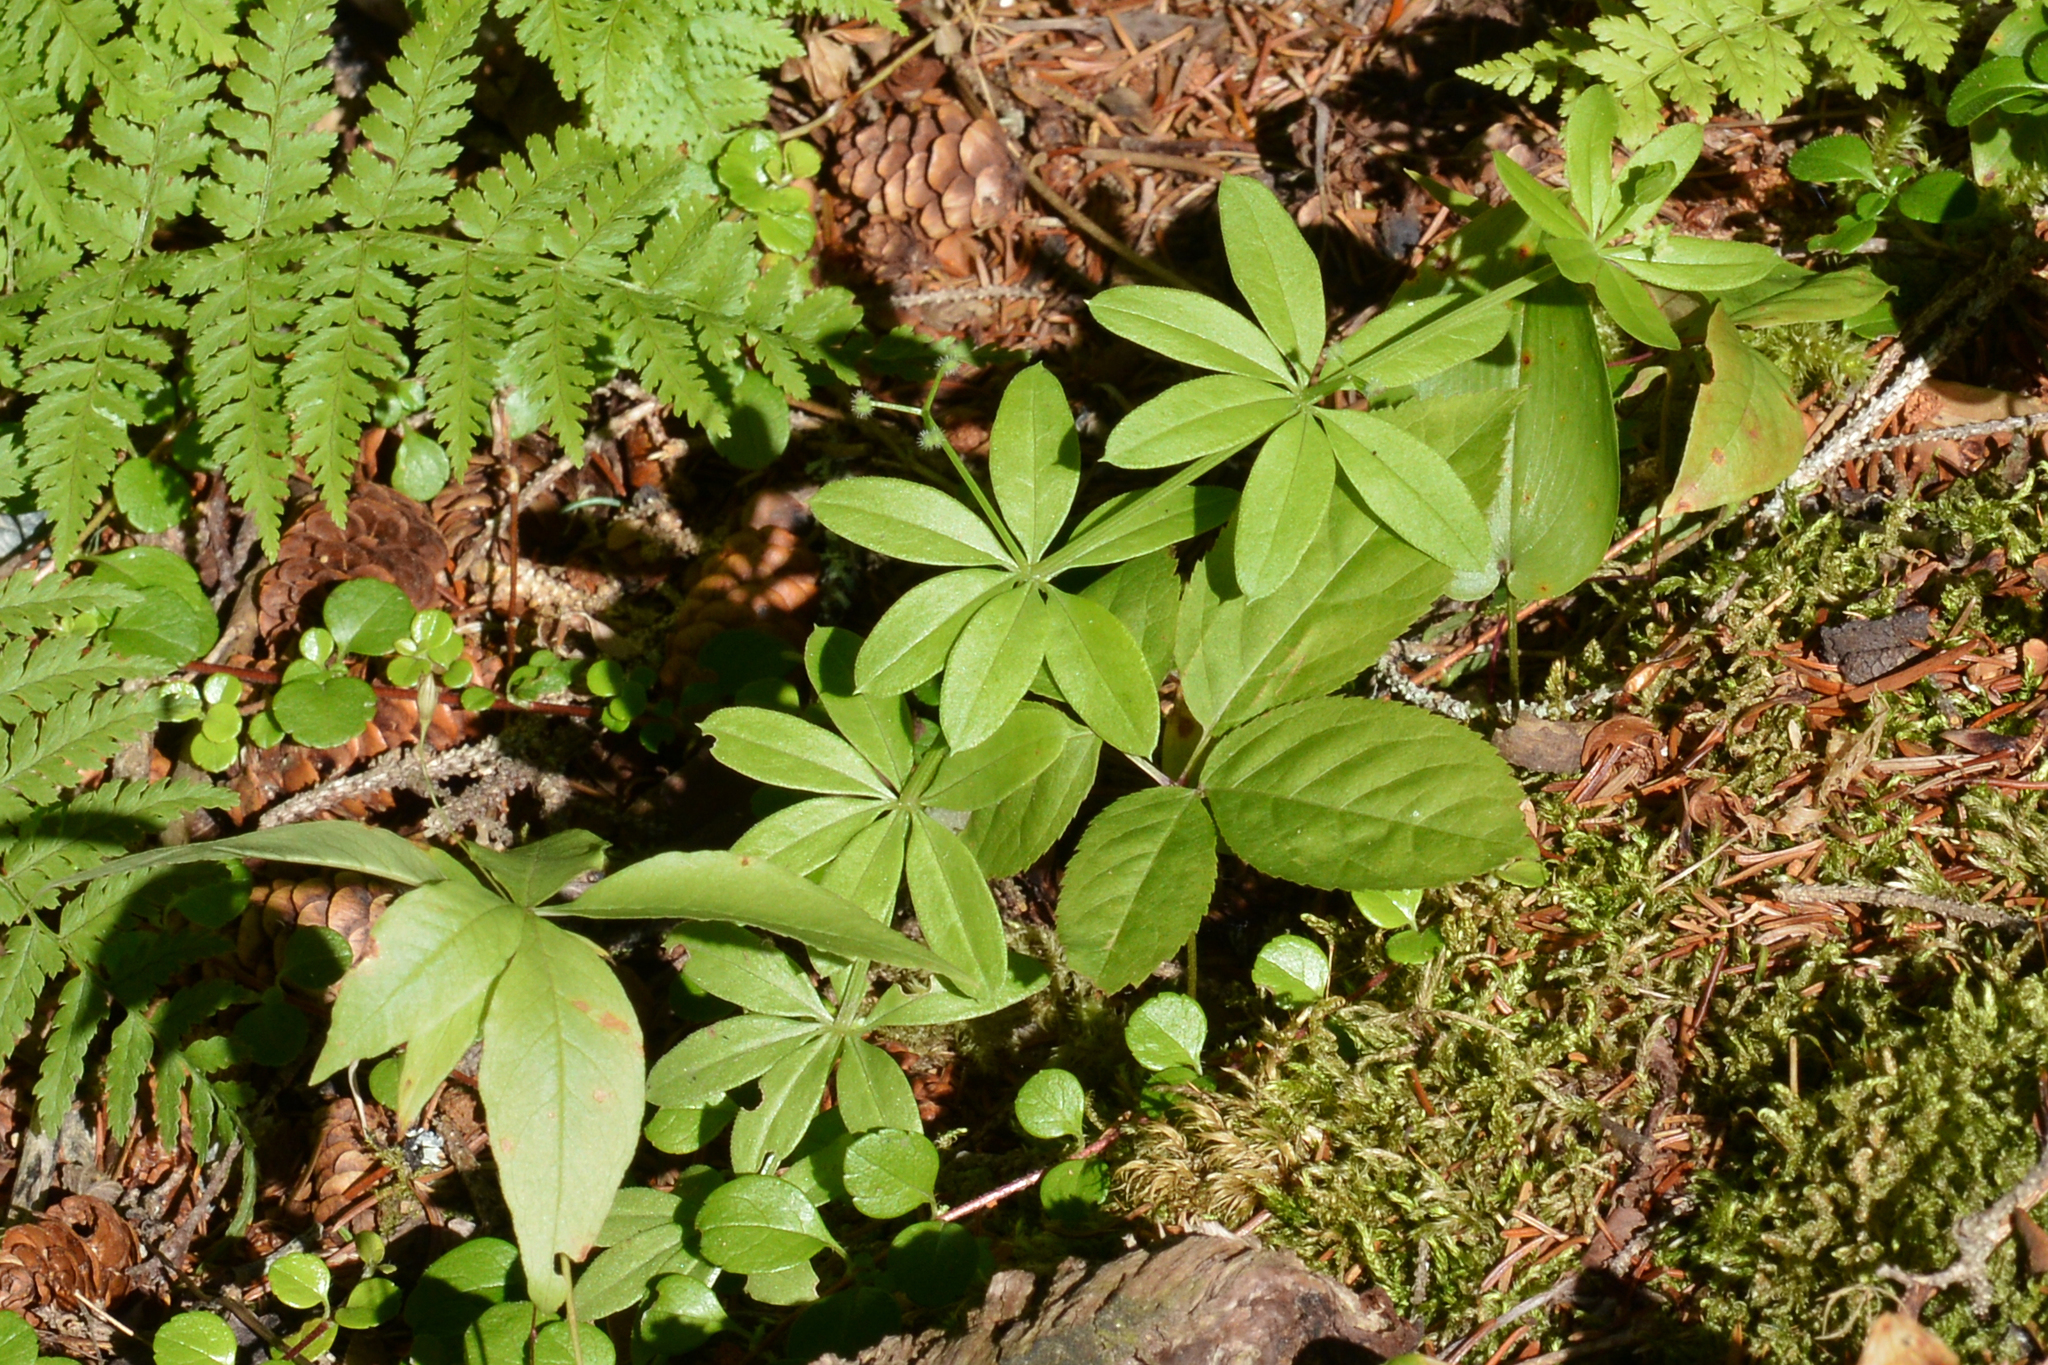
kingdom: Plantae
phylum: Tracheophyta
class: Magnoliopsida
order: Gentianales
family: Rubiaceae
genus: Galium
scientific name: Galium triflorum
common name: Fragrant bedstraw
